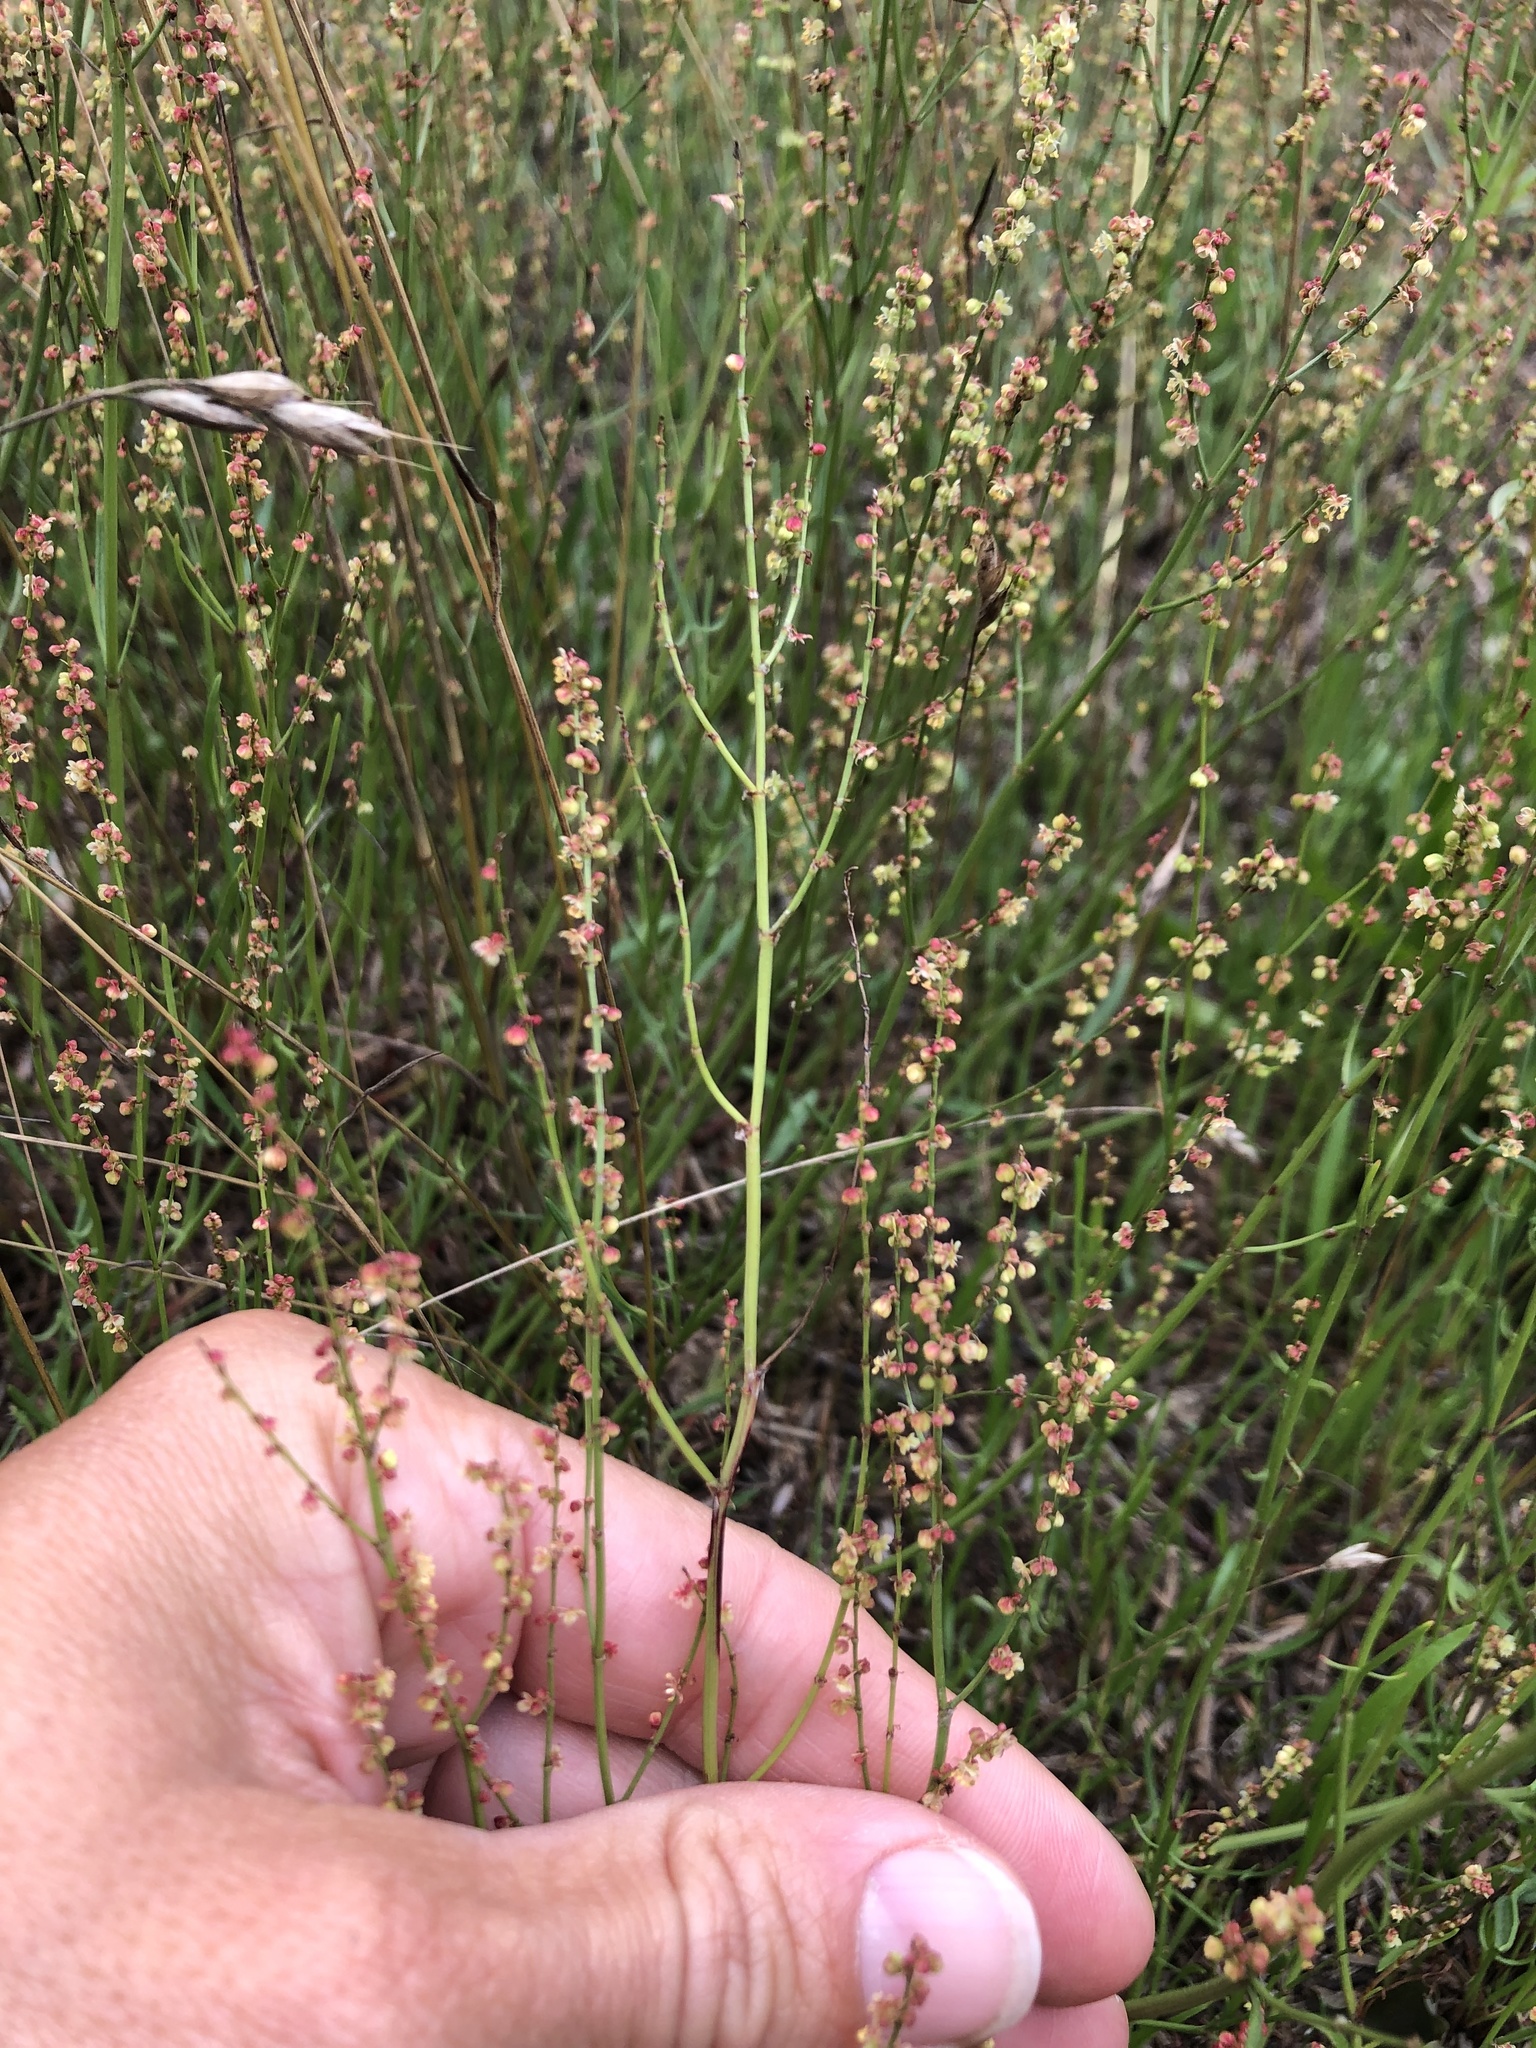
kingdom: Plantae
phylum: Tracheophyta
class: Magnoliopsida
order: Caryophyllales
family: Polygonaceae
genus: Rumex
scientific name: Rumex acetosella
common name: Common sheep sorrel
